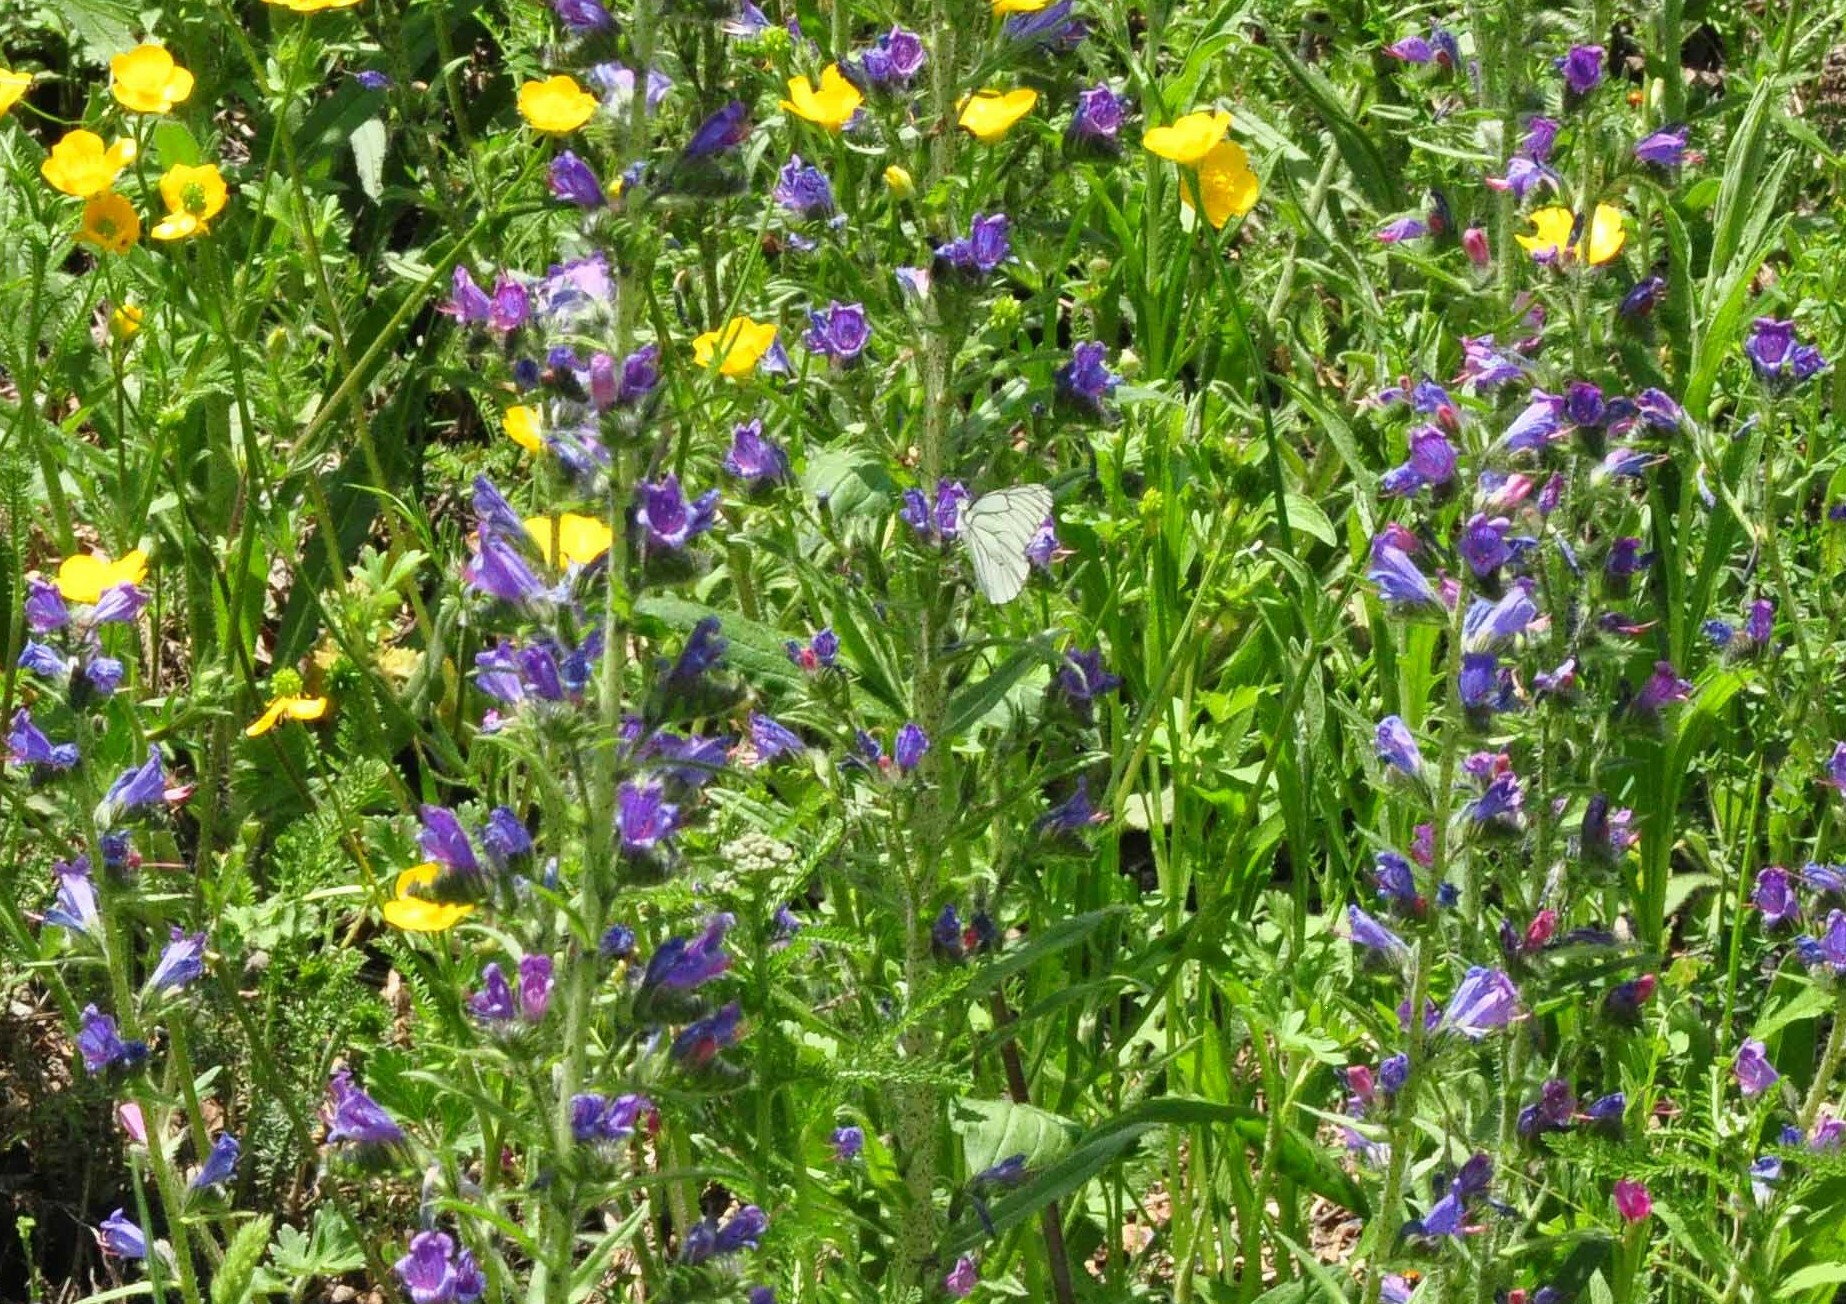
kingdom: Animalia
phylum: Arthropoda
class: Insecta
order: Lepidoptera
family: Pieridae
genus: Aporia
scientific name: Aporia crataegi
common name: Black-veined white
